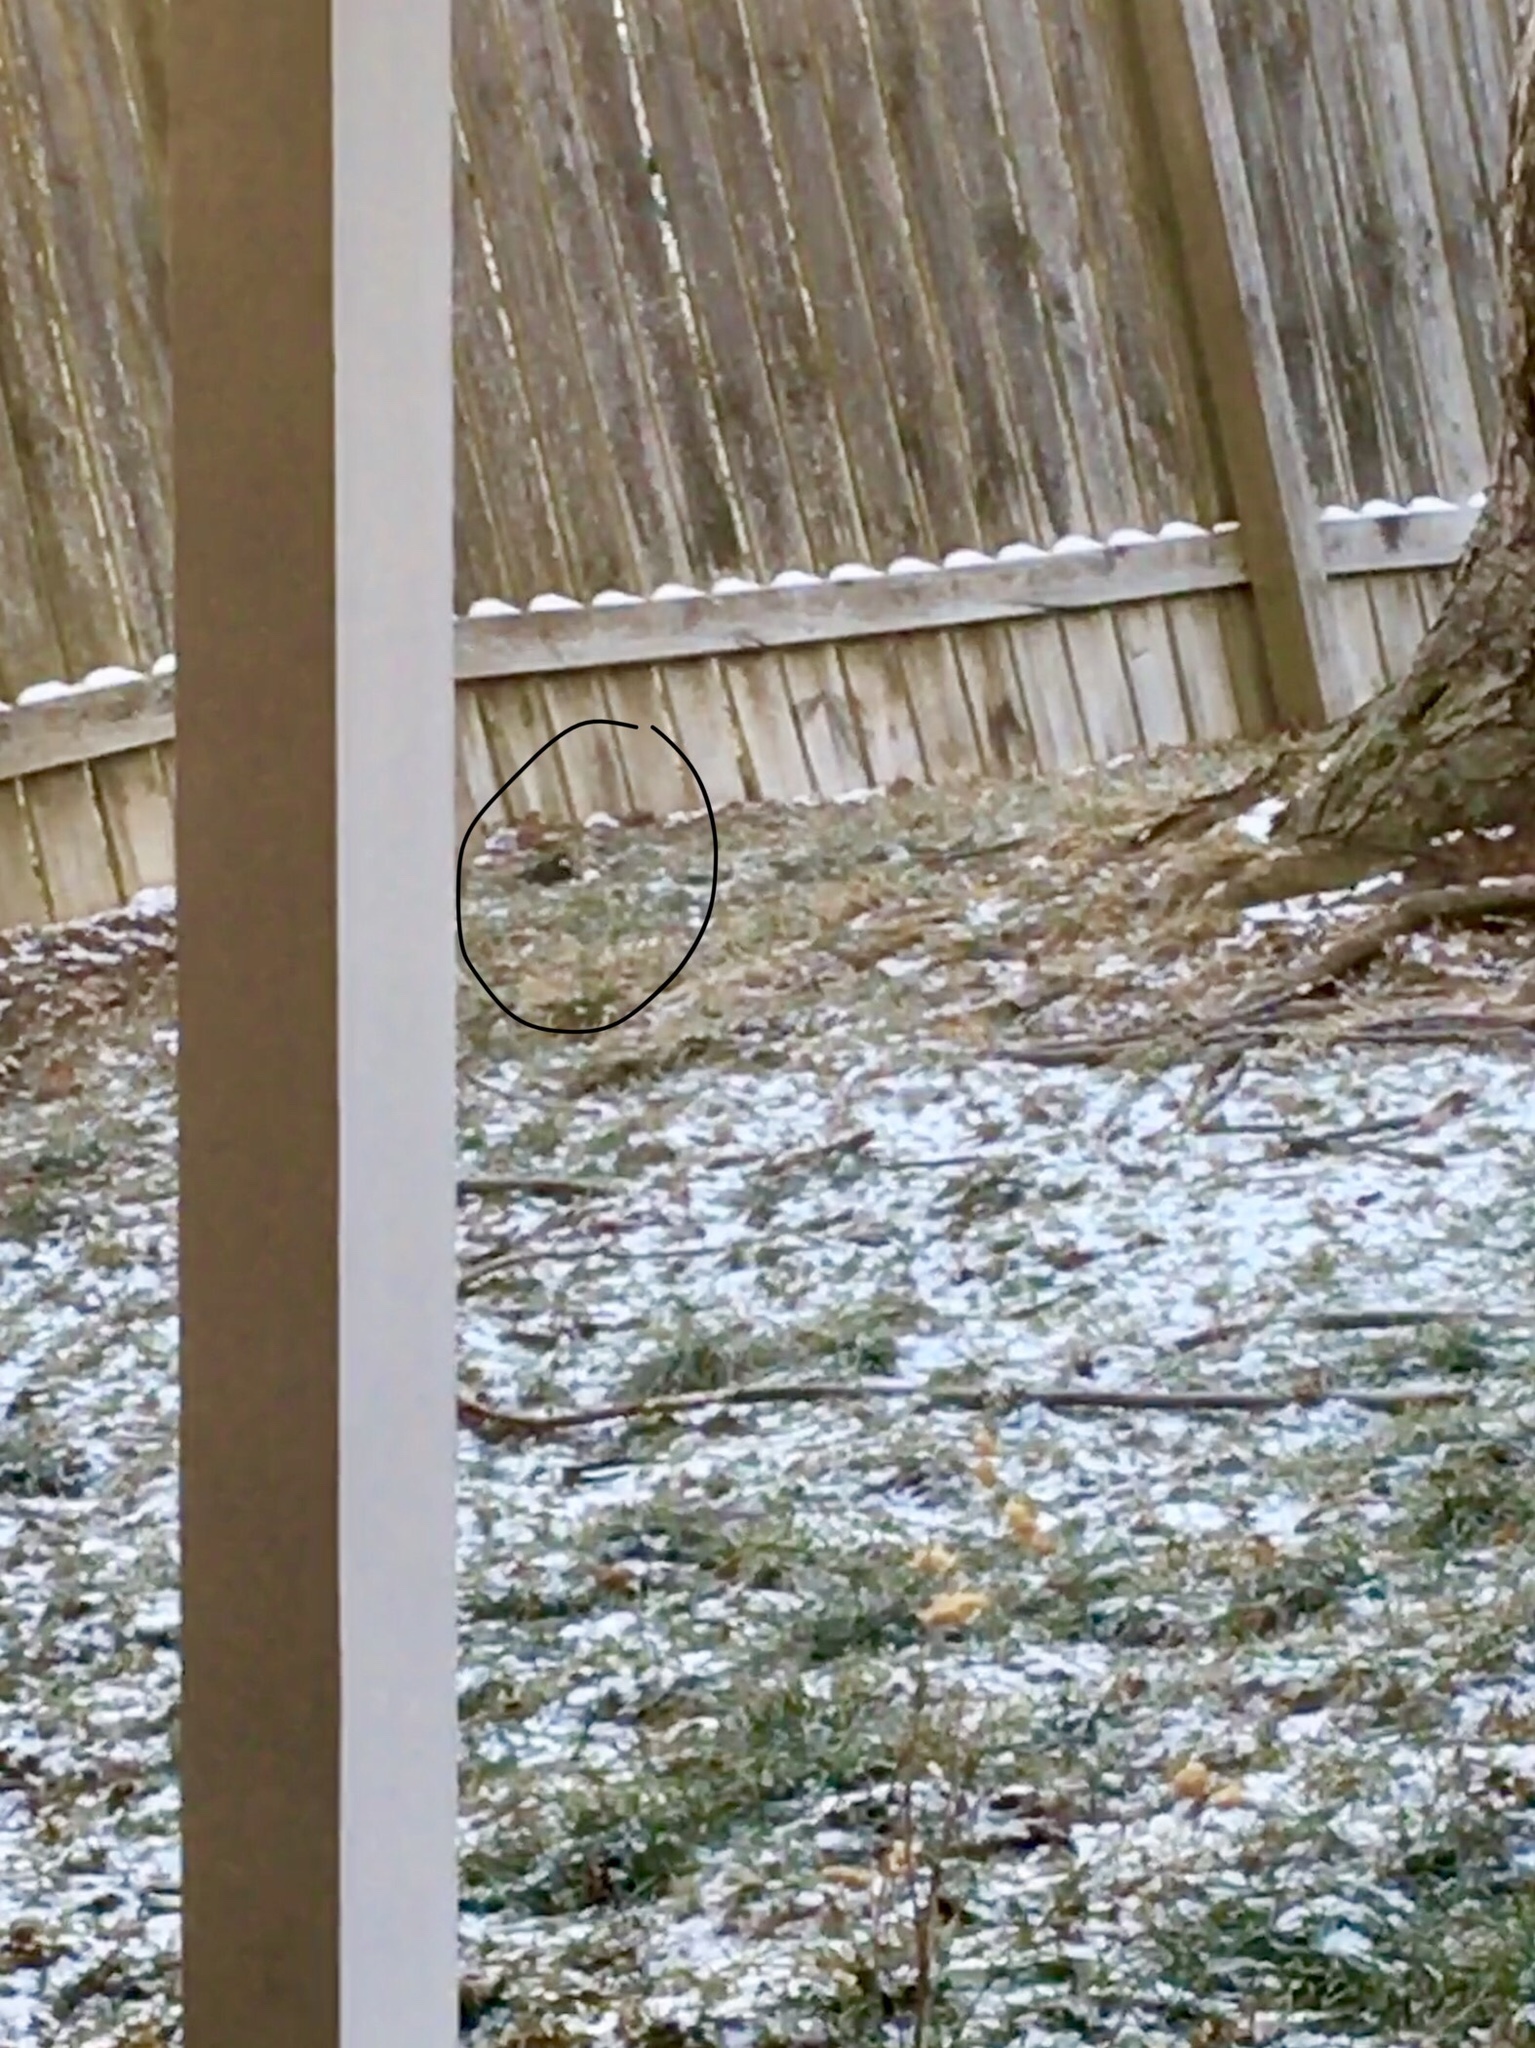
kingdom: Animalia
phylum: Chordata
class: Aves
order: Passeriformes
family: Passerellidae
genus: Junco
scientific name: Junco hyemalis
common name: Dark-eyed junco
